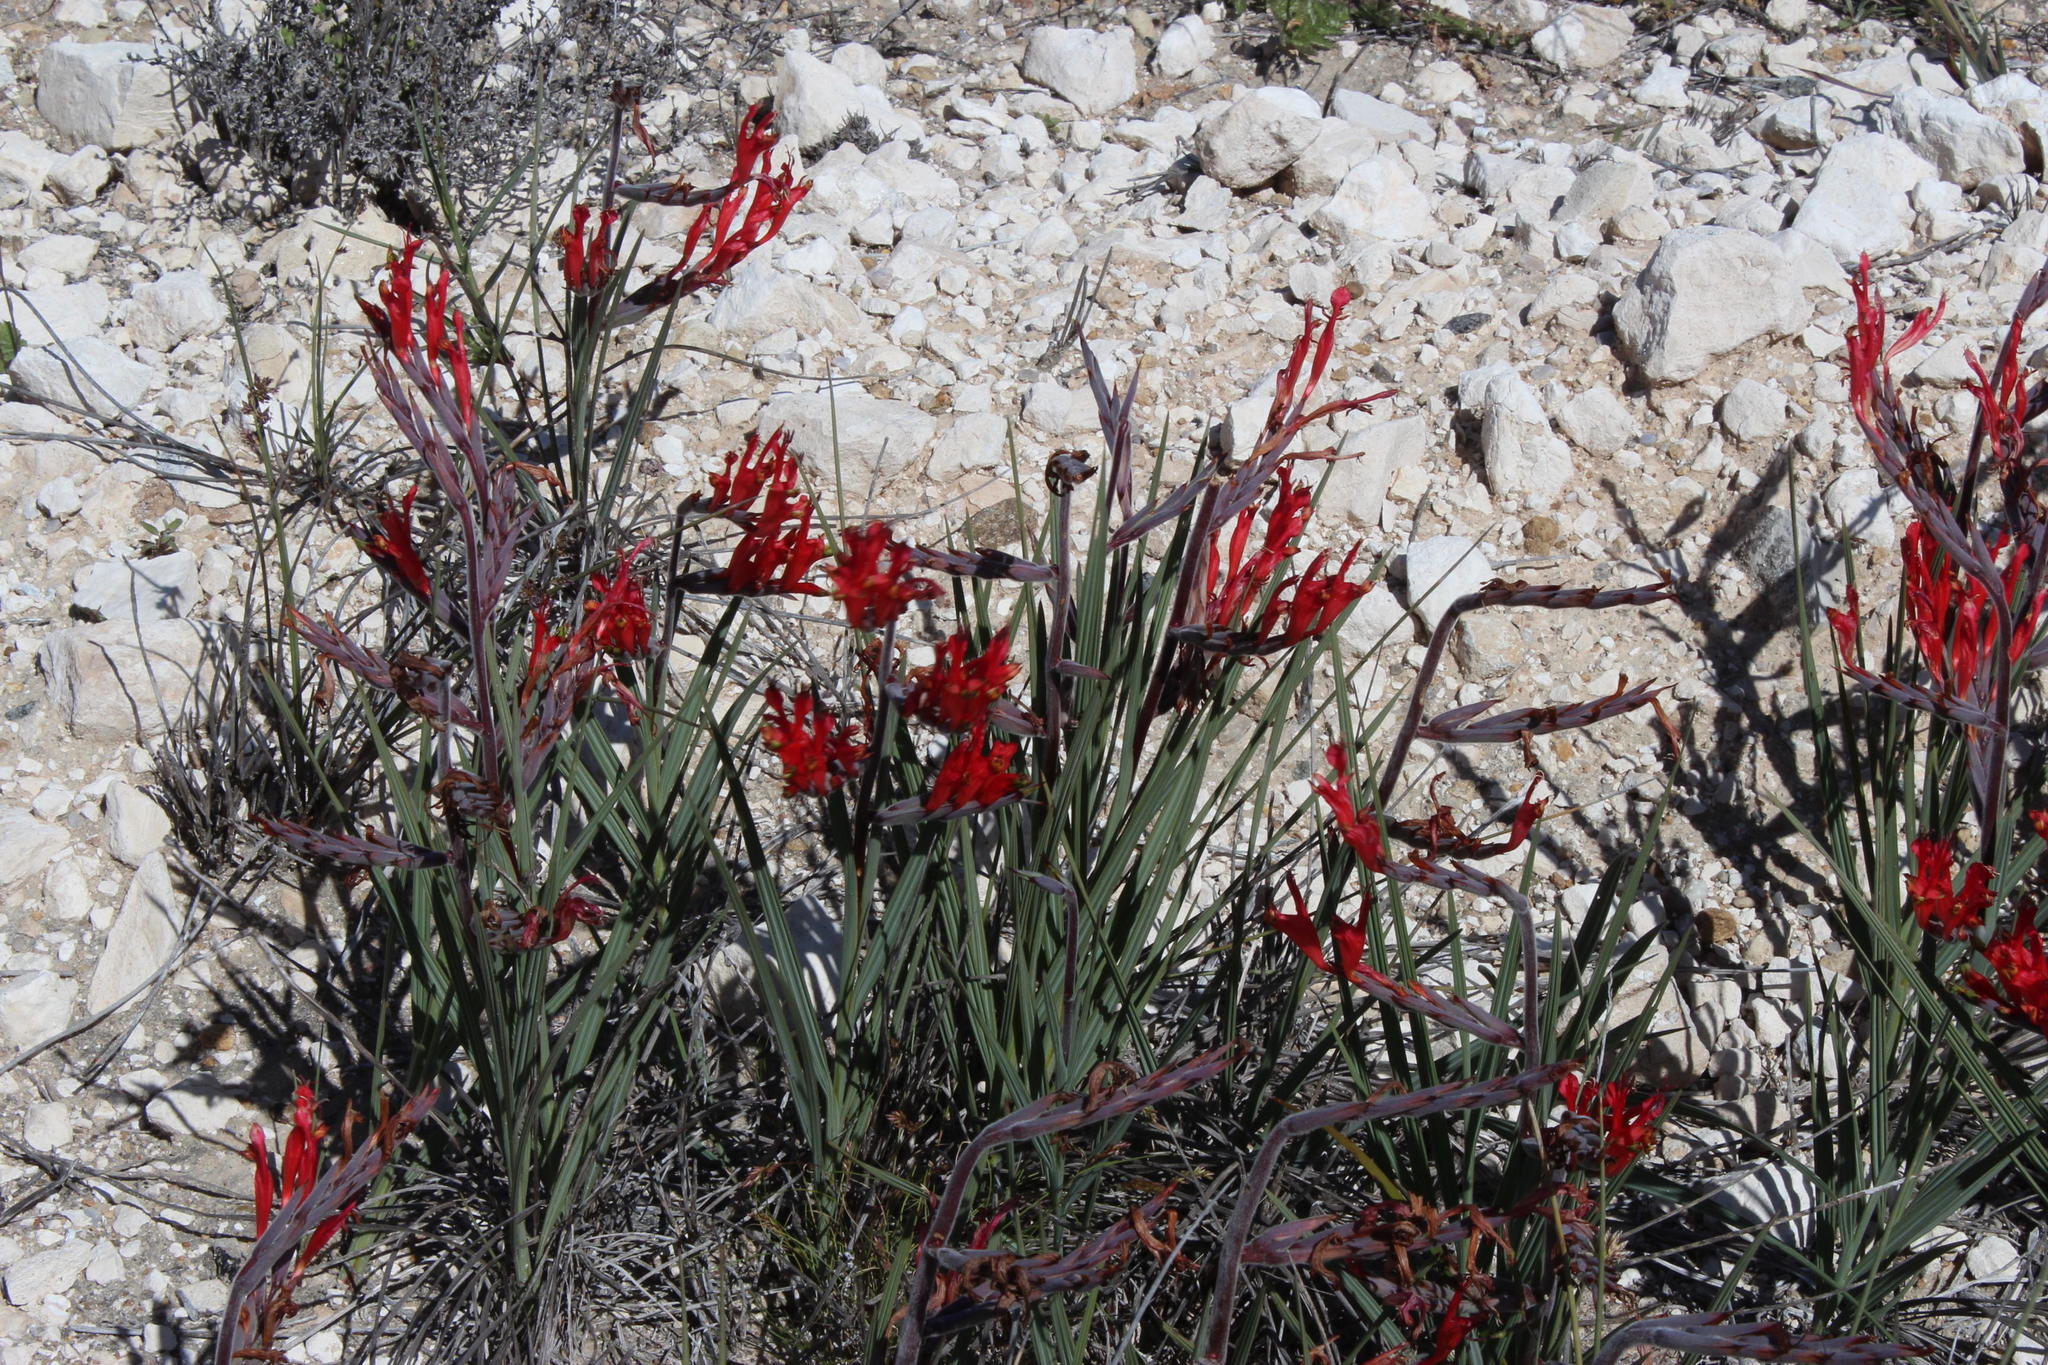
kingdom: Plantae
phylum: Tracheophyta
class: Liliopsida
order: Asparagales
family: Iridaceae
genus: Babiana
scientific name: Babiana hirsuta
